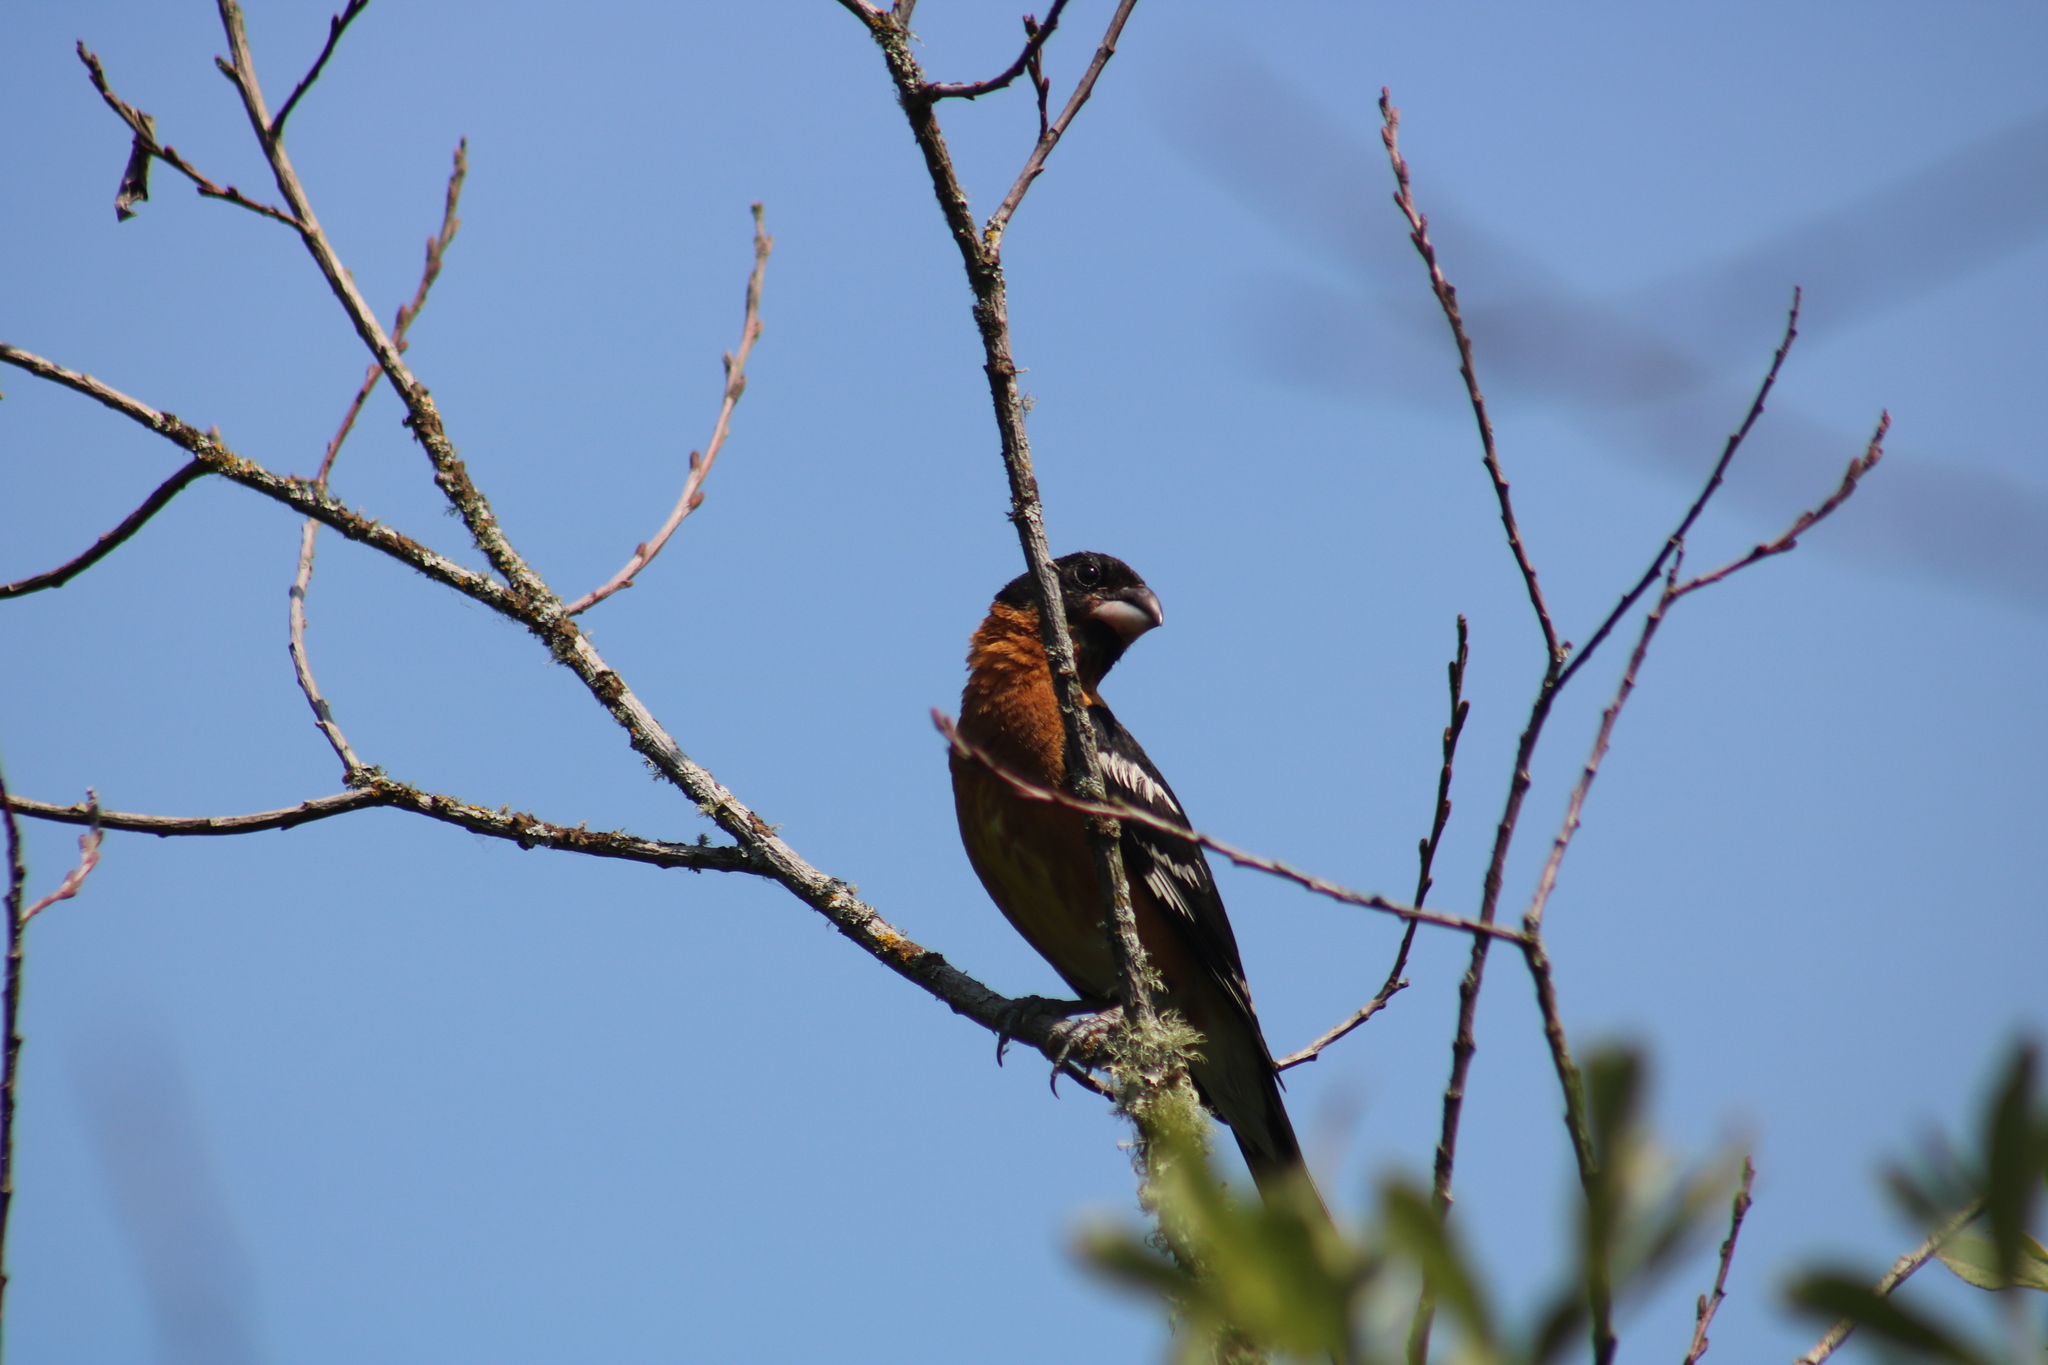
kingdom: Animalia
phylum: Chordata
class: Aves
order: Passeriformes
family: Cardinalidae
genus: Pheucticus
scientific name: Pheucticus melanocephalus
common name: Black-headed grosbeak
